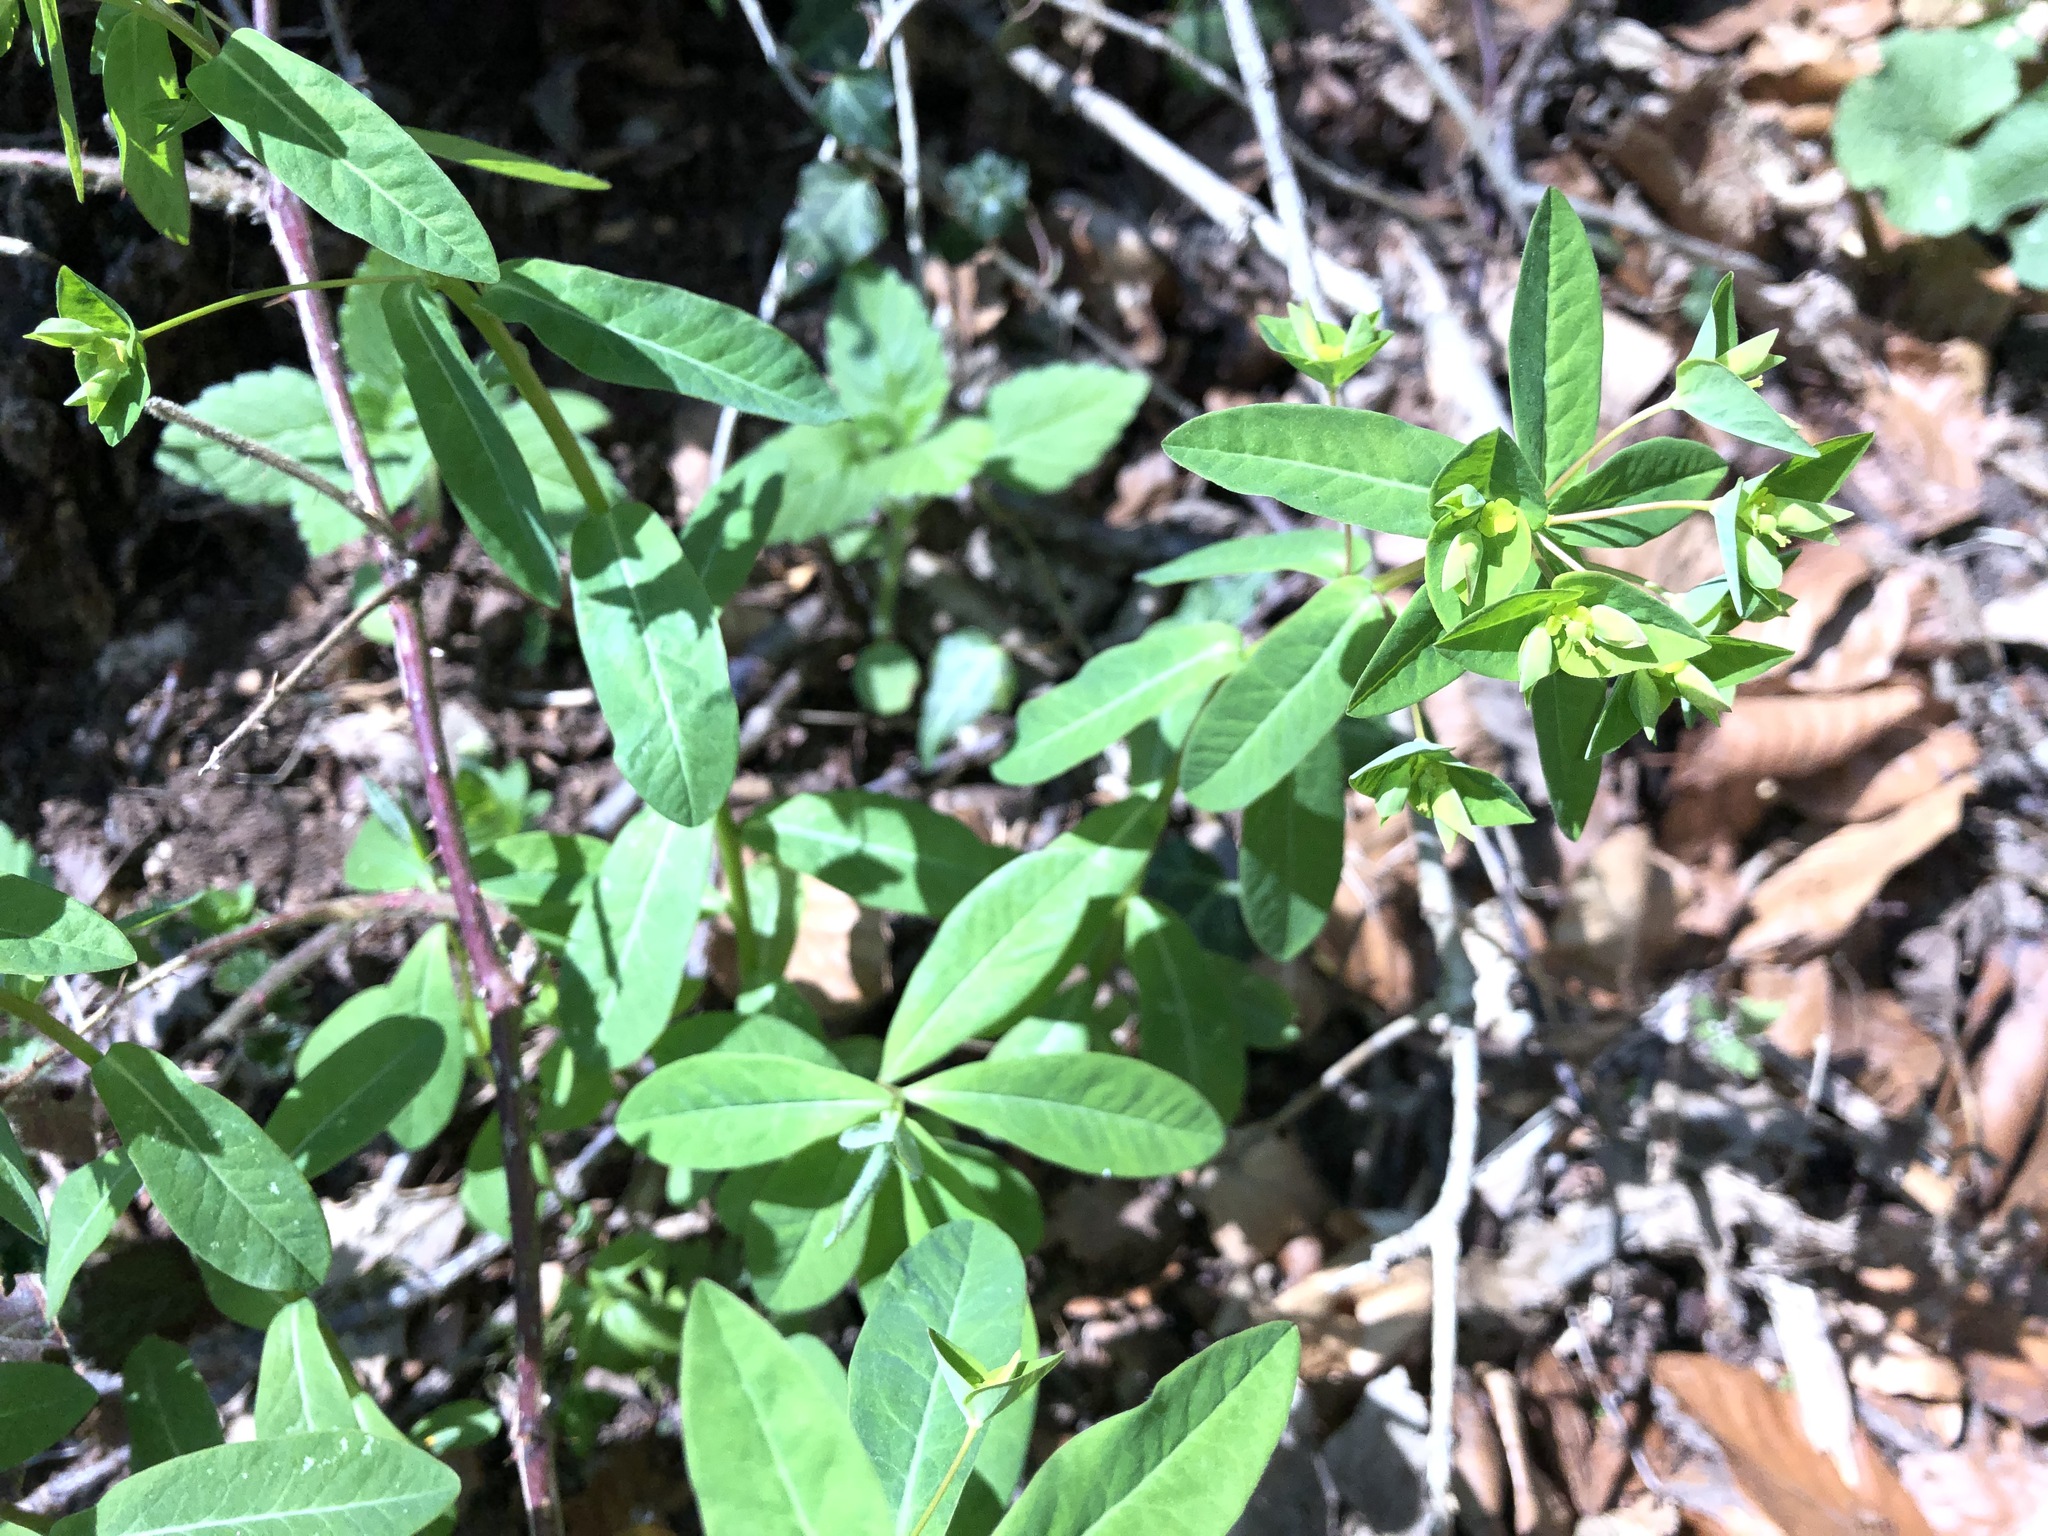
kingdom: Plantae
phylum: Tracheophyta
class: Magnoliopsida
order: Malpighiales
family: Euphorbiaceae
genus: Euphorbia
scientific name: Euphorbia dulcis
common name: Sweet spurge
